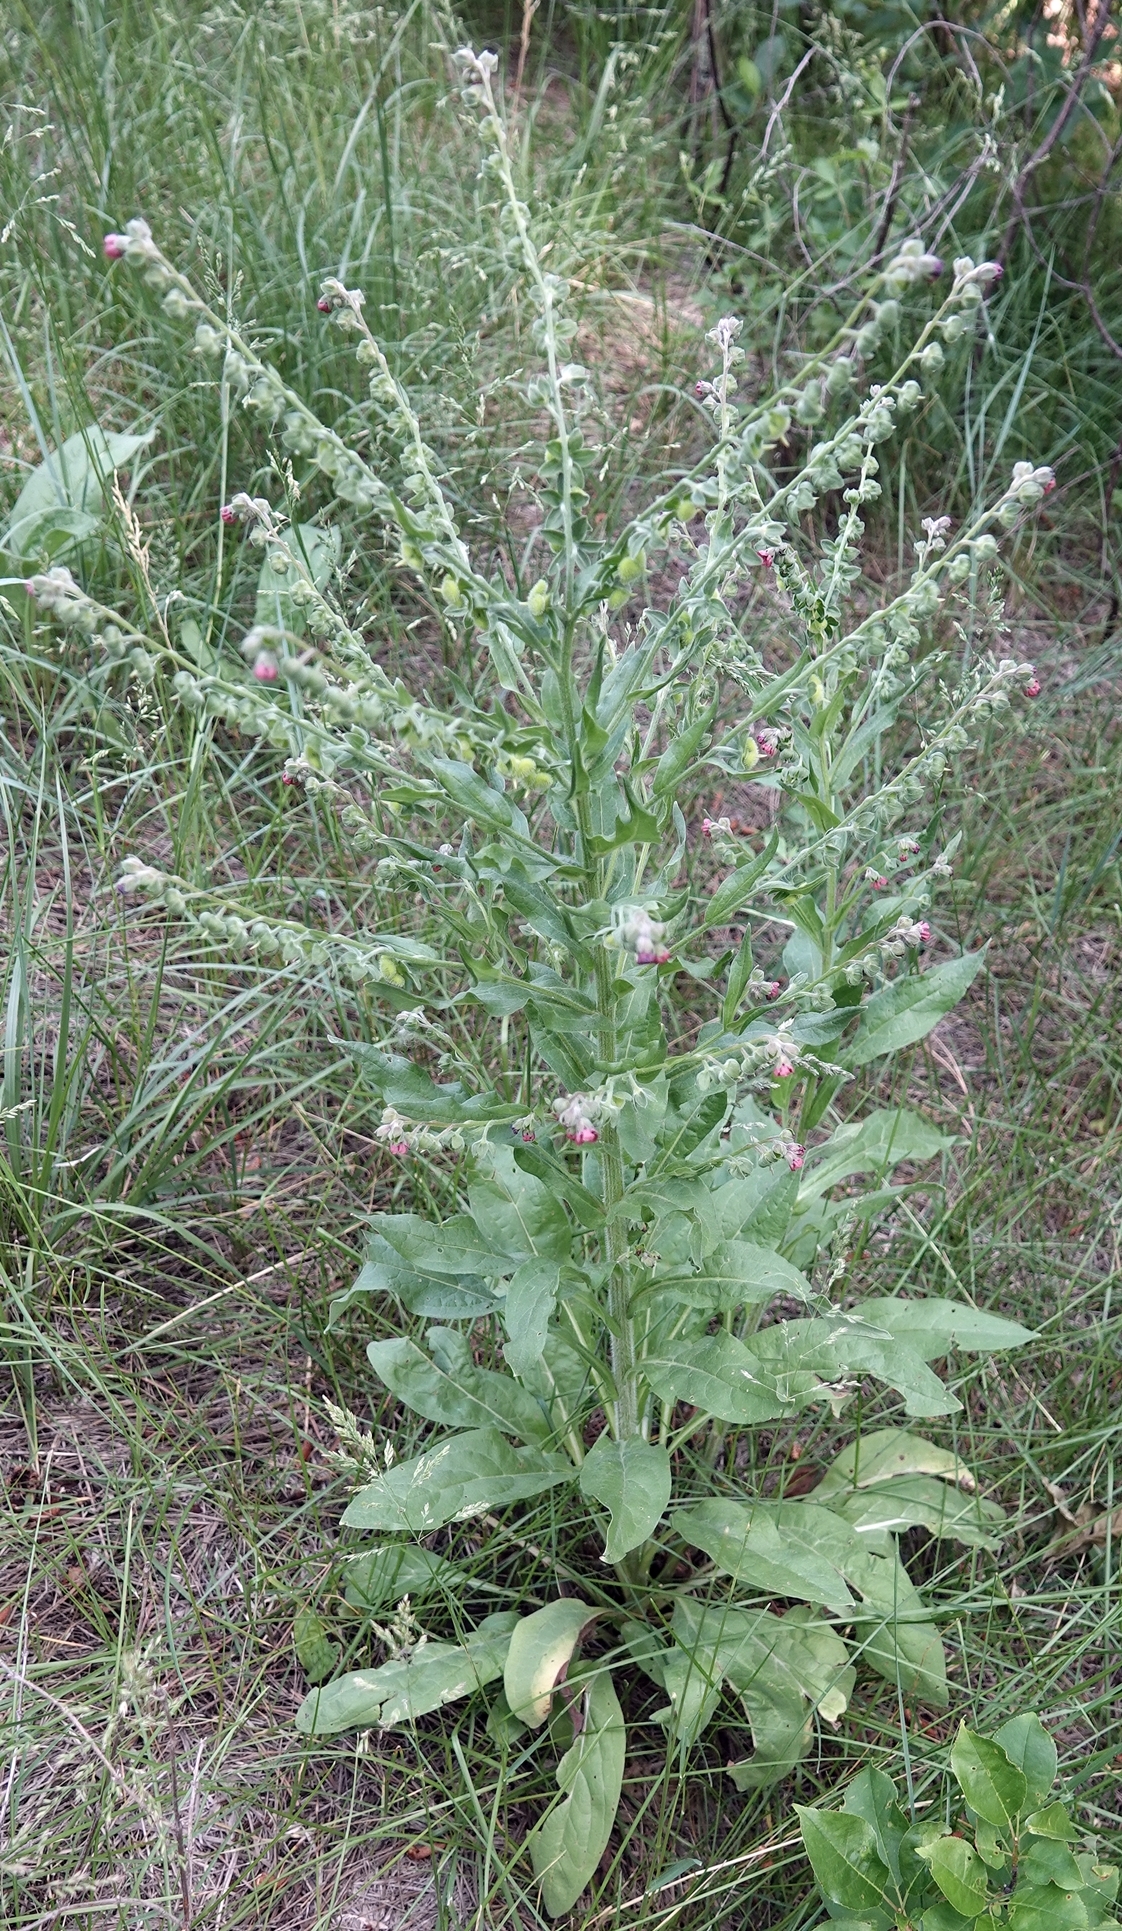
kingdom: Plantae
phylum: Tracheophyta
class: Magnoliopsida
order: Boraginales
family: Boraginaceae
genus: Cynoglossum
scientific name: Cynoglossum officinale
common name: Hound's-tongue
